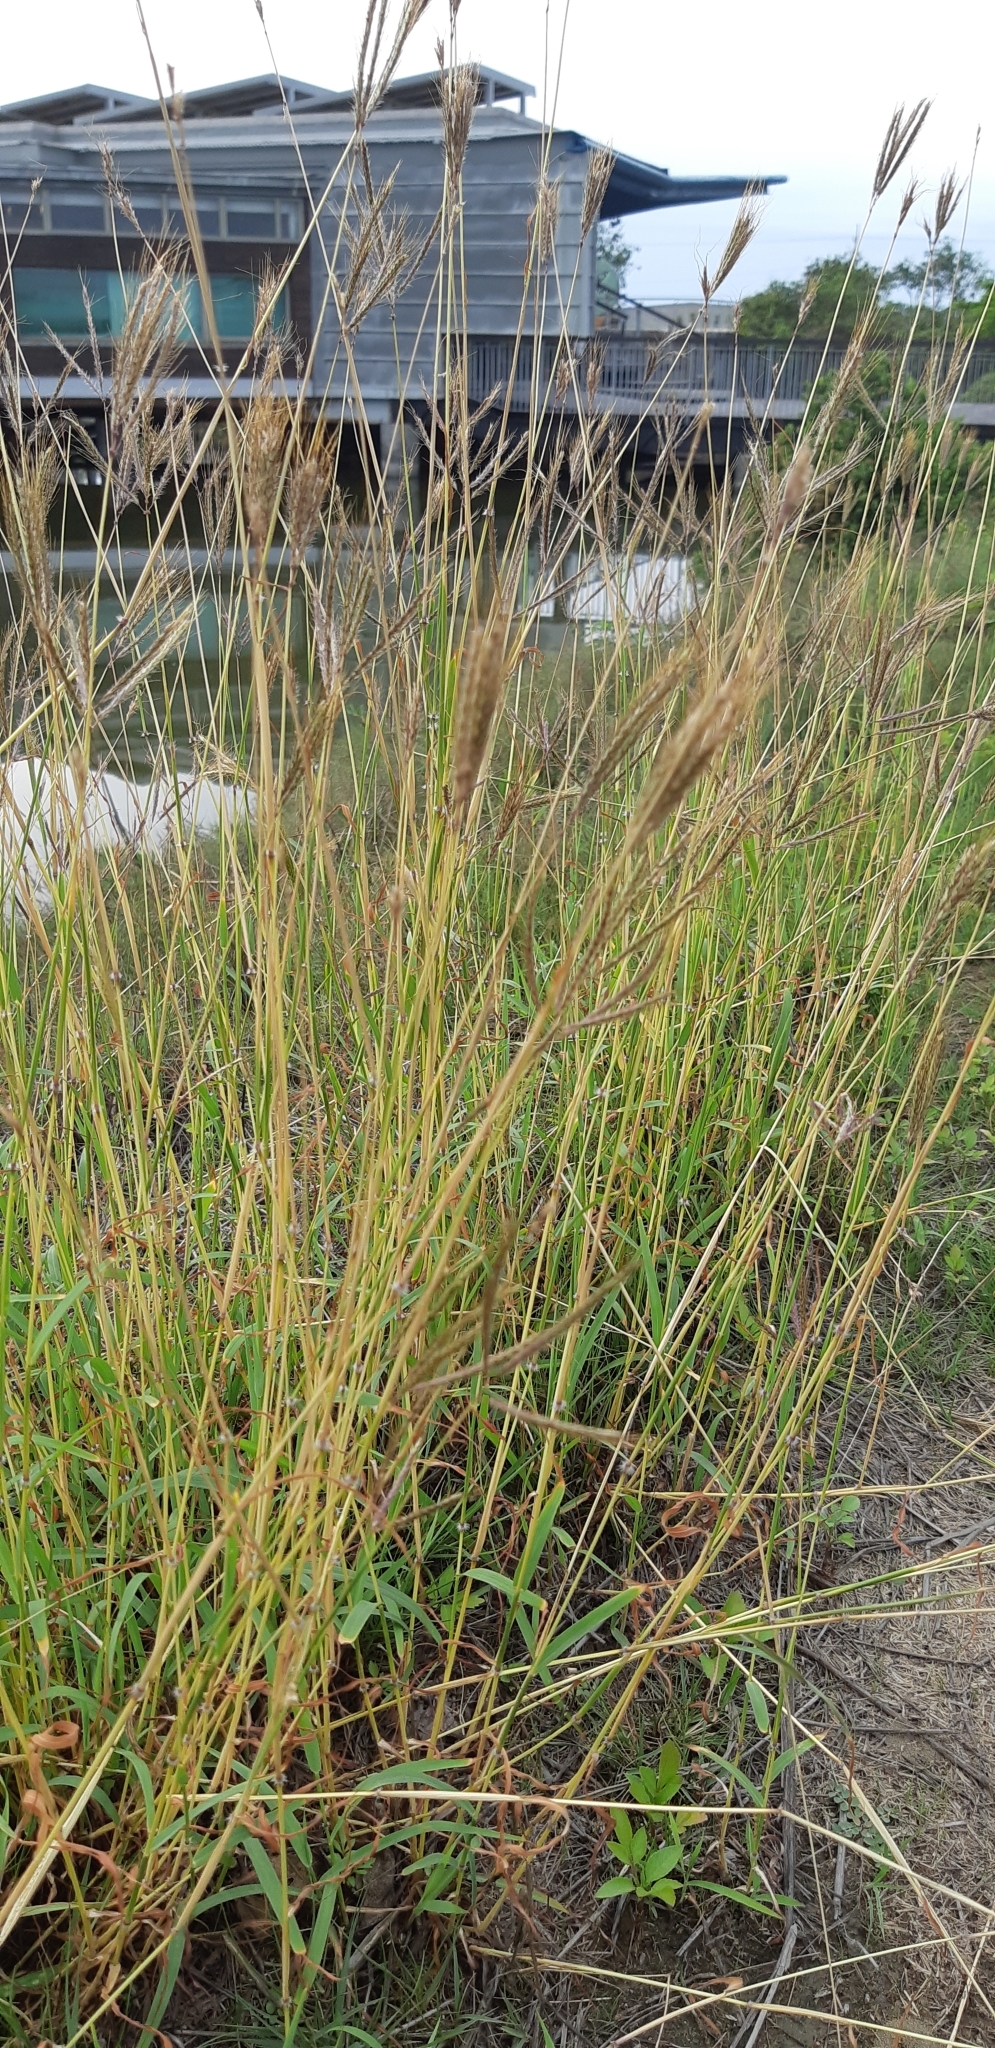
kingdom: Plantae
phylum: Tracheophyta
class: Liliopsida
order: Poales
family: Poaceae
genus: Dichanthium
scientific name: Dichanthium annulatum
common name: Kleberg's bluestem
